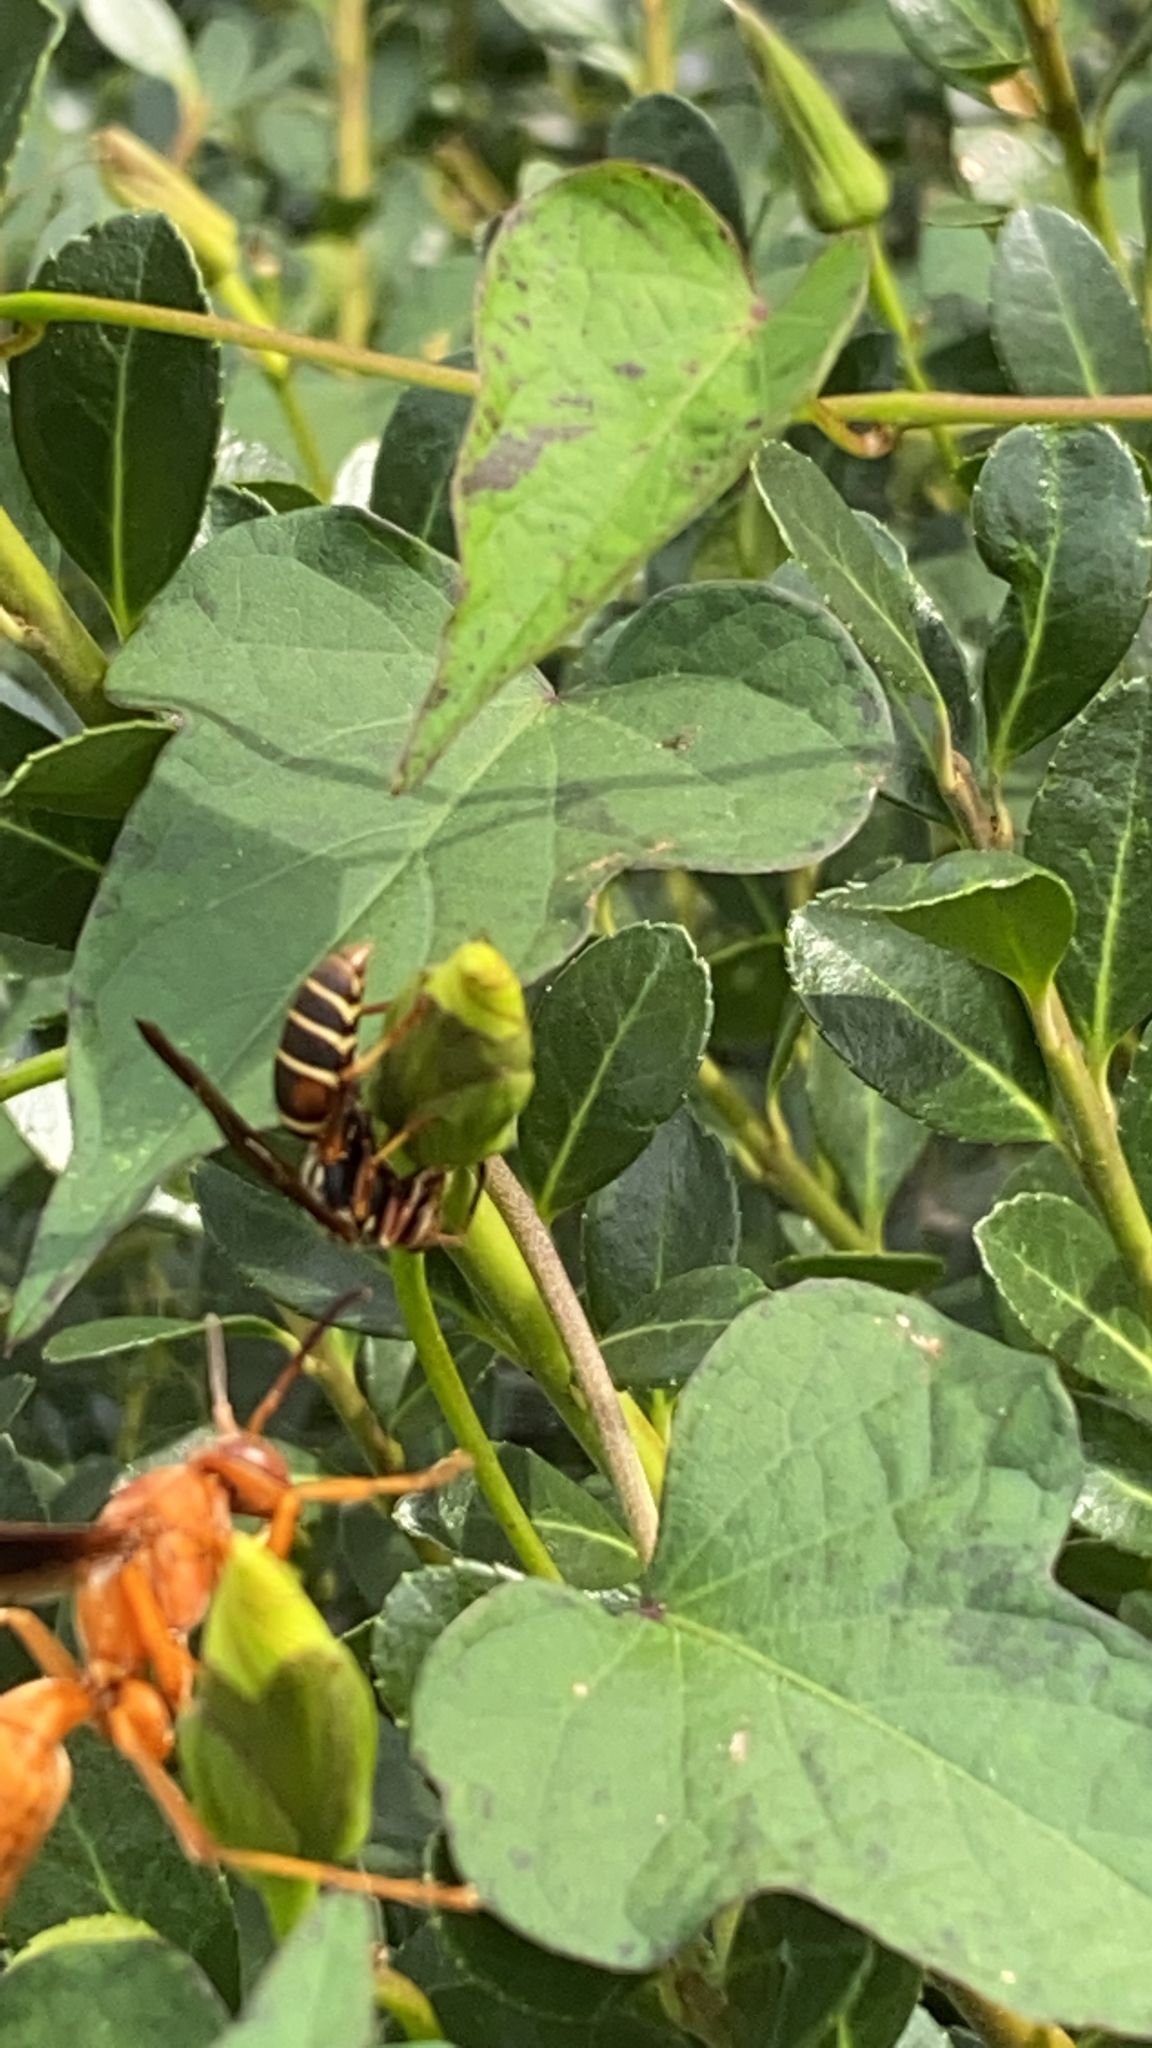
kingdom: Animalia
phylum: Arthropoda
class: Insecta
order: Hymenoptera
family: Eumenidae
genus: Polistes
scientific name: Polistes fuscatus
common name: Dark paper wasp
